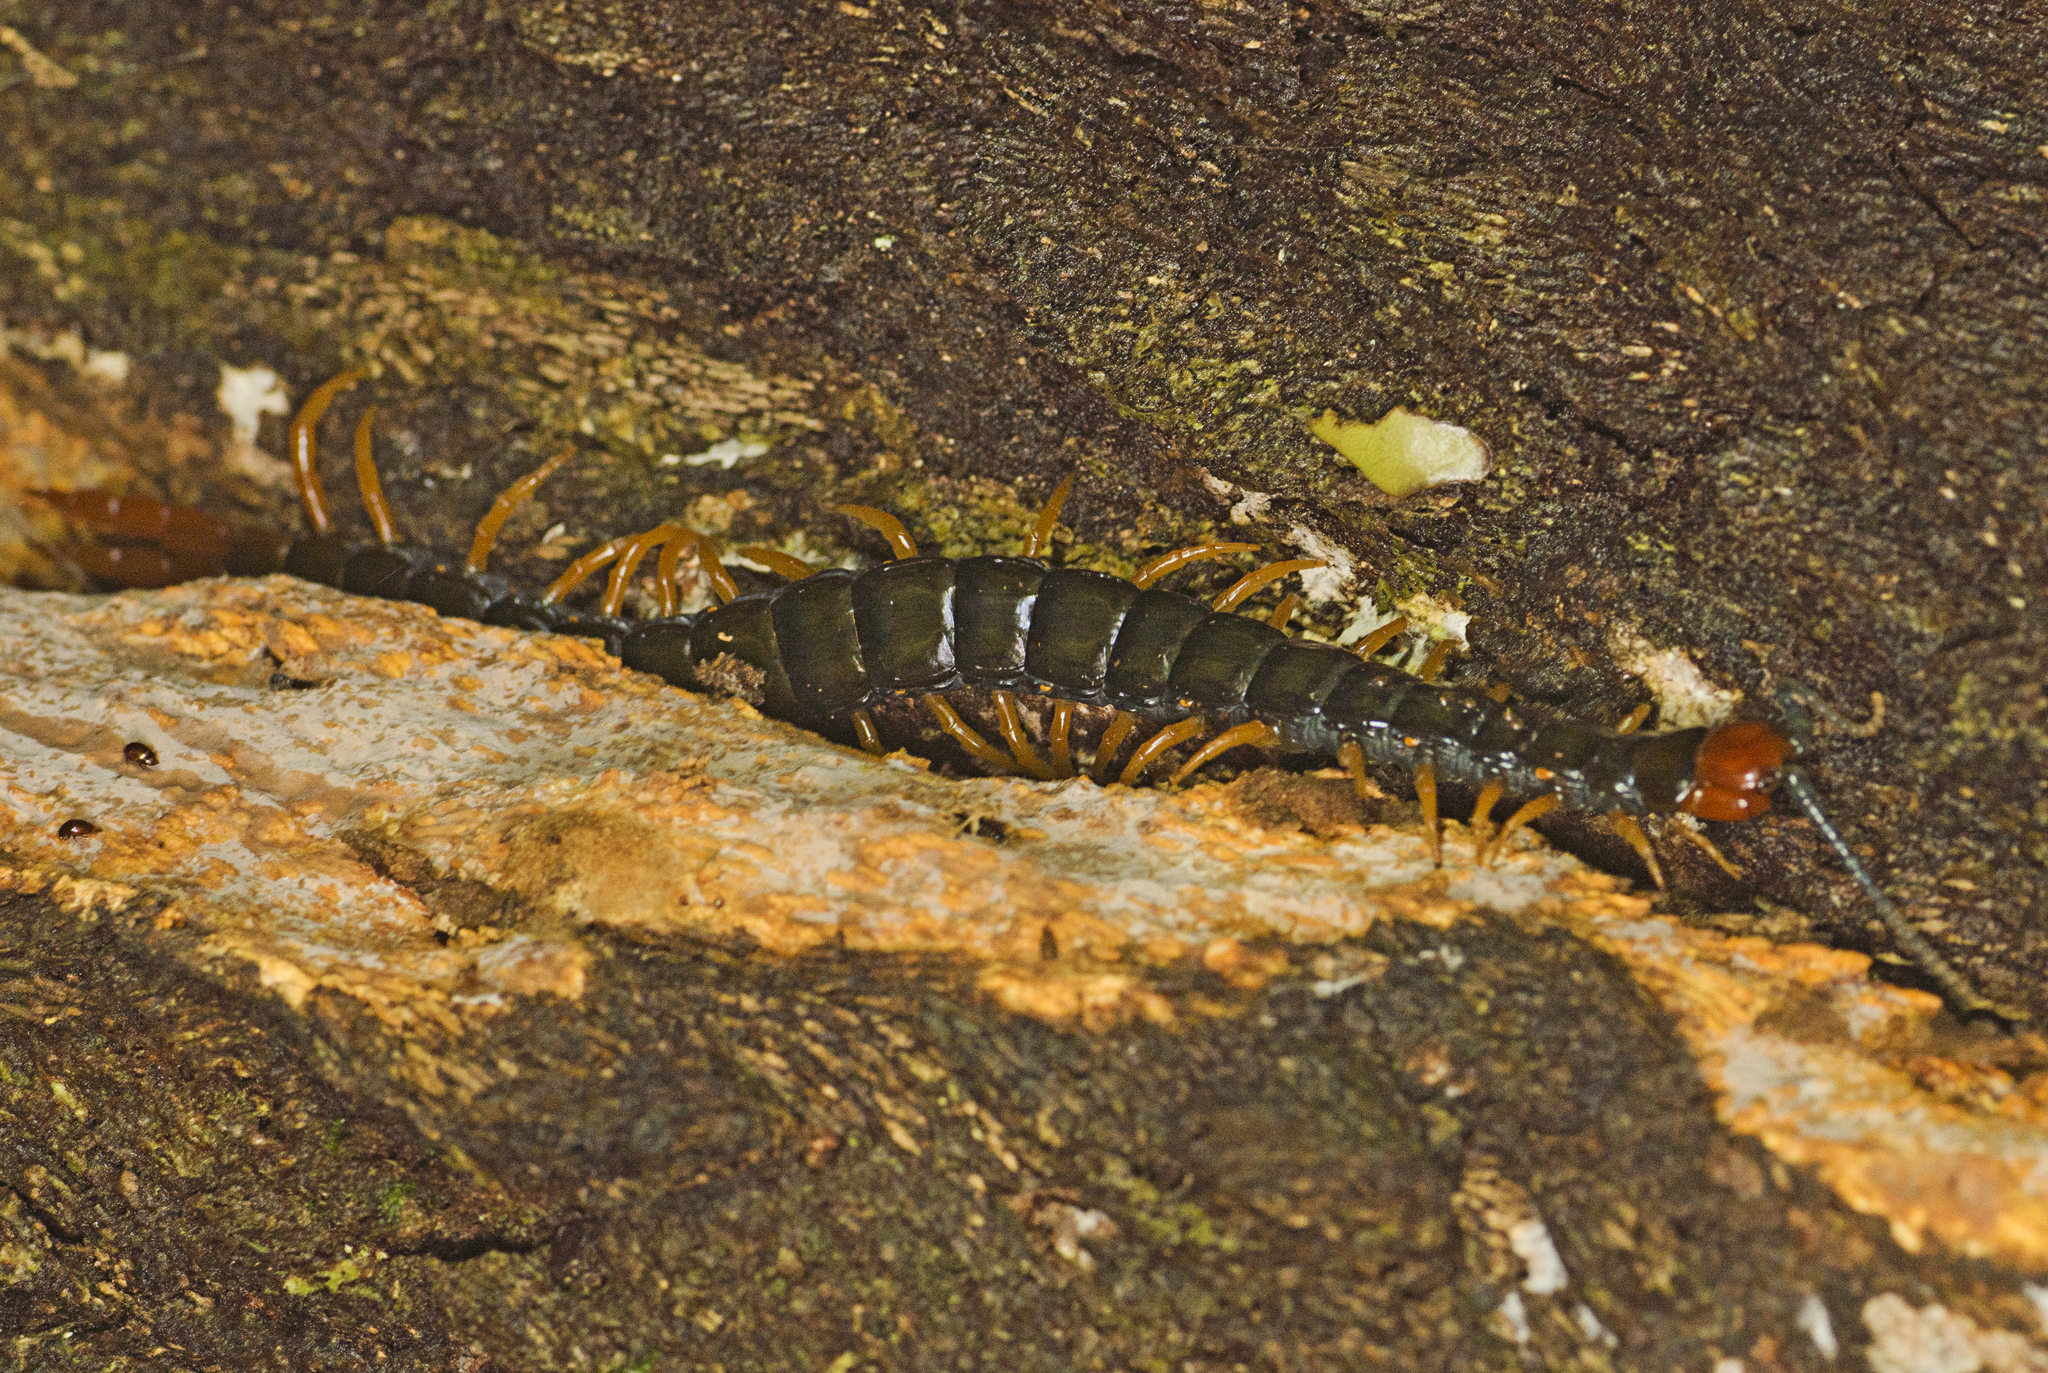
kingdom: Animalia
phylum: Arthropoda
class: Chilopoda
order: Scolopendromorpha
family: Scolopendridae
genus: Cormocephalus
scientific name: Cormocephalus westwoodi
